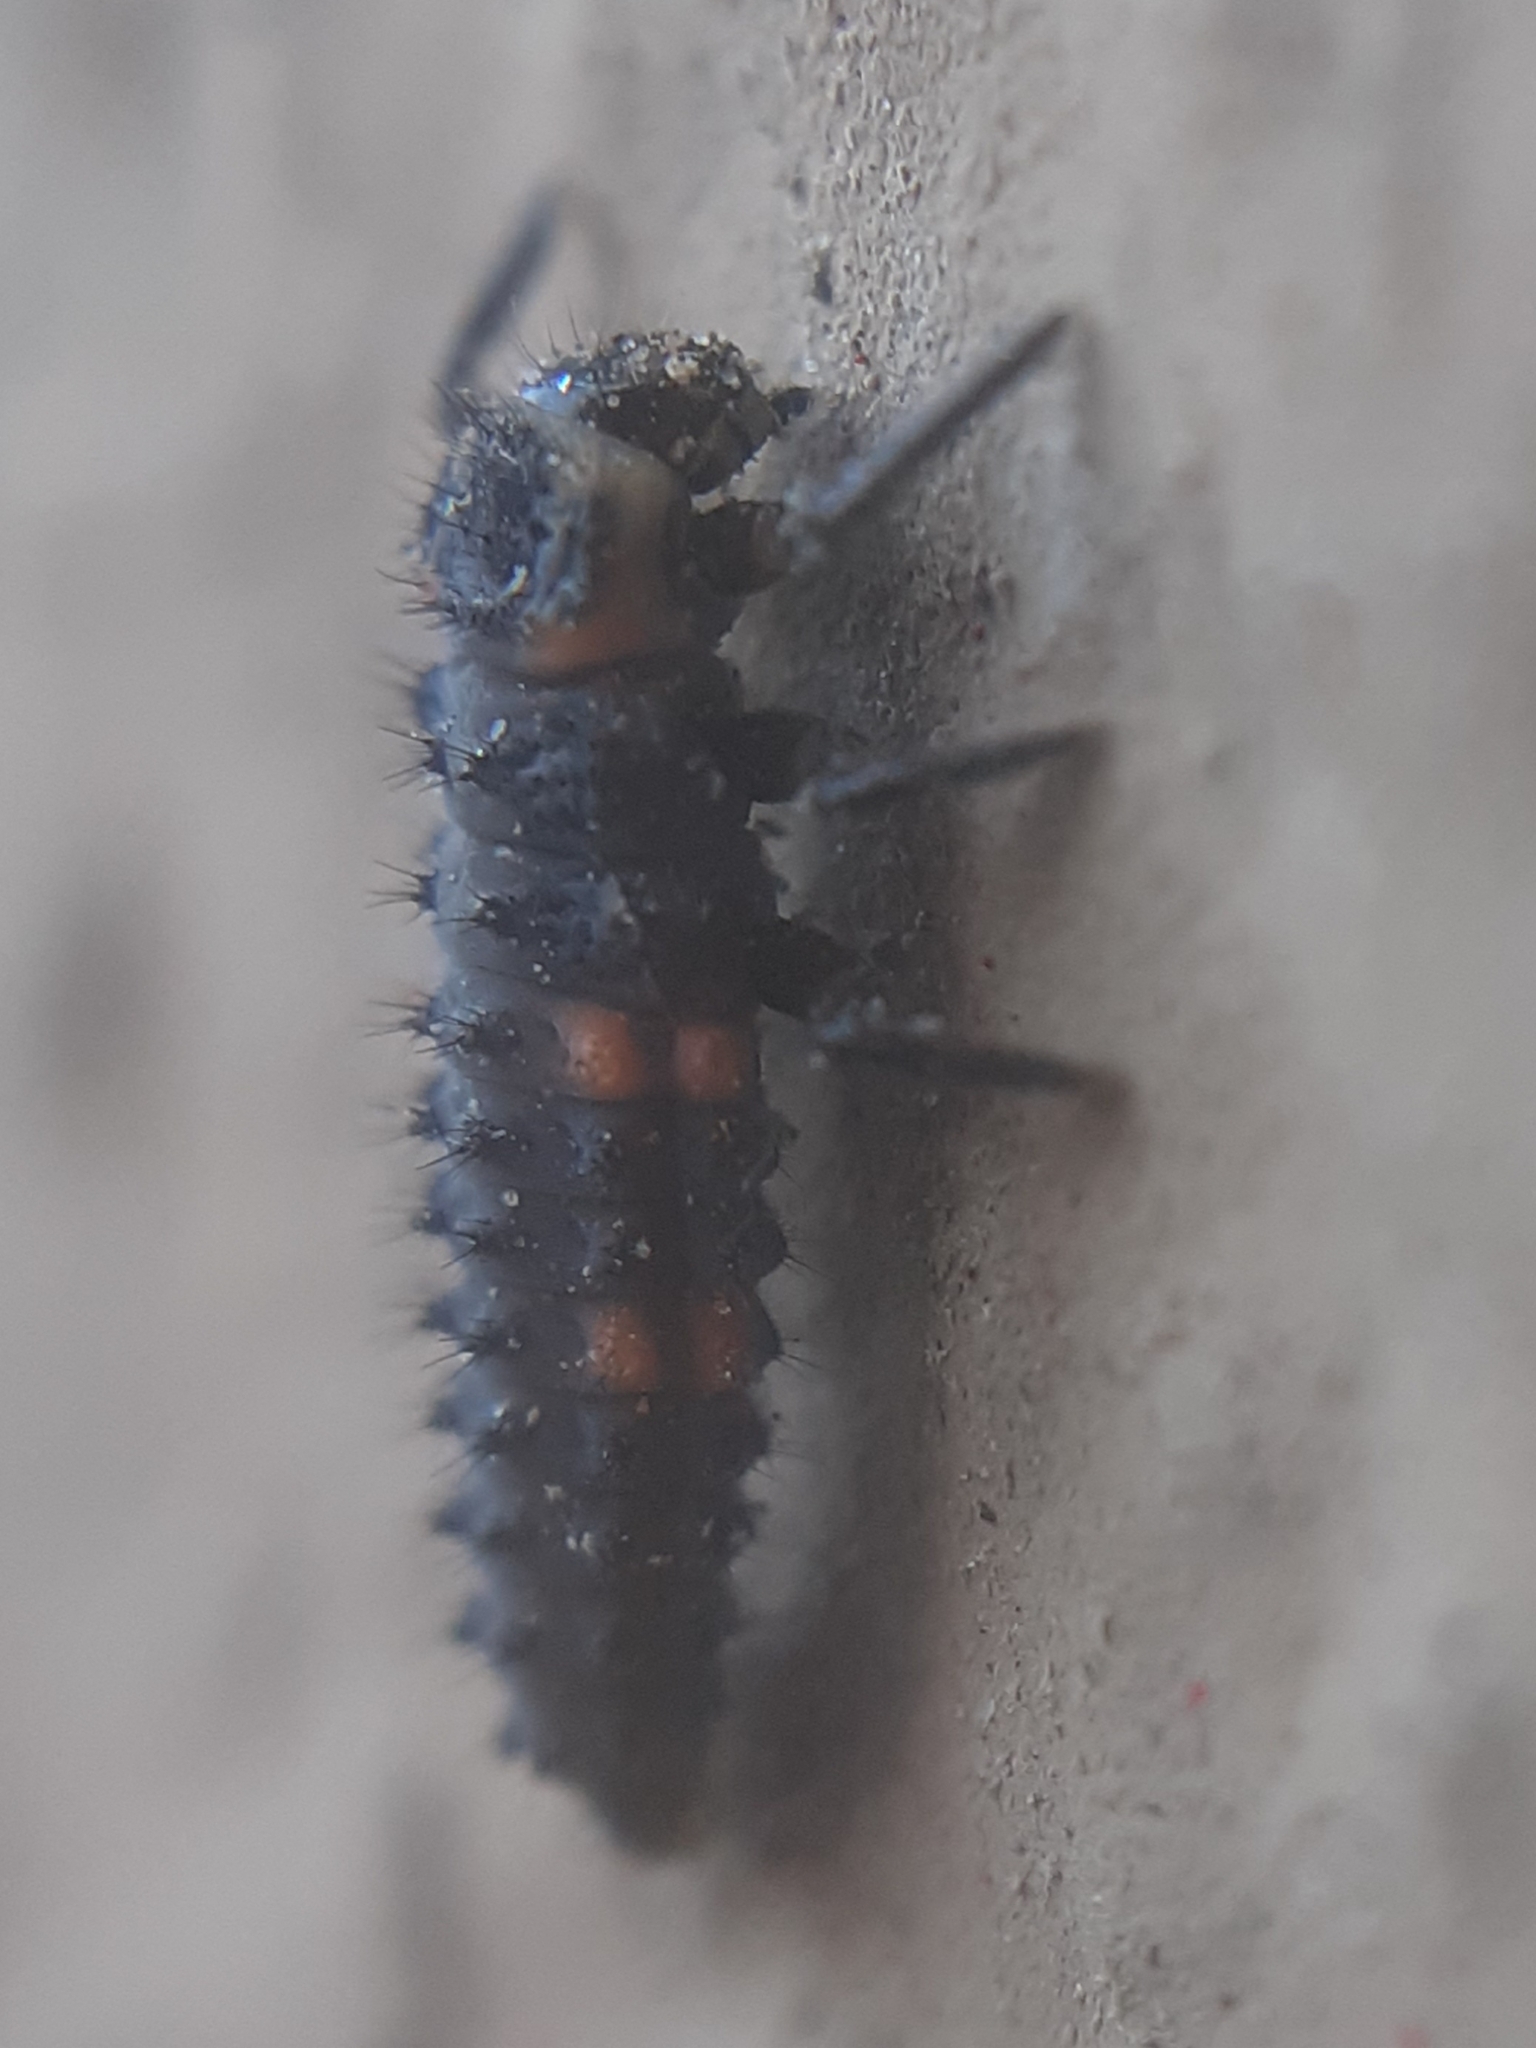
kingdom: Animalia
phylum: Arthropoda
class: Insecta
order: Coleoptera
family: Coccinellidae
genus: Coccinella
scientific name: Coccinella septempunctata
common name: Sevenspotted lady beetle
